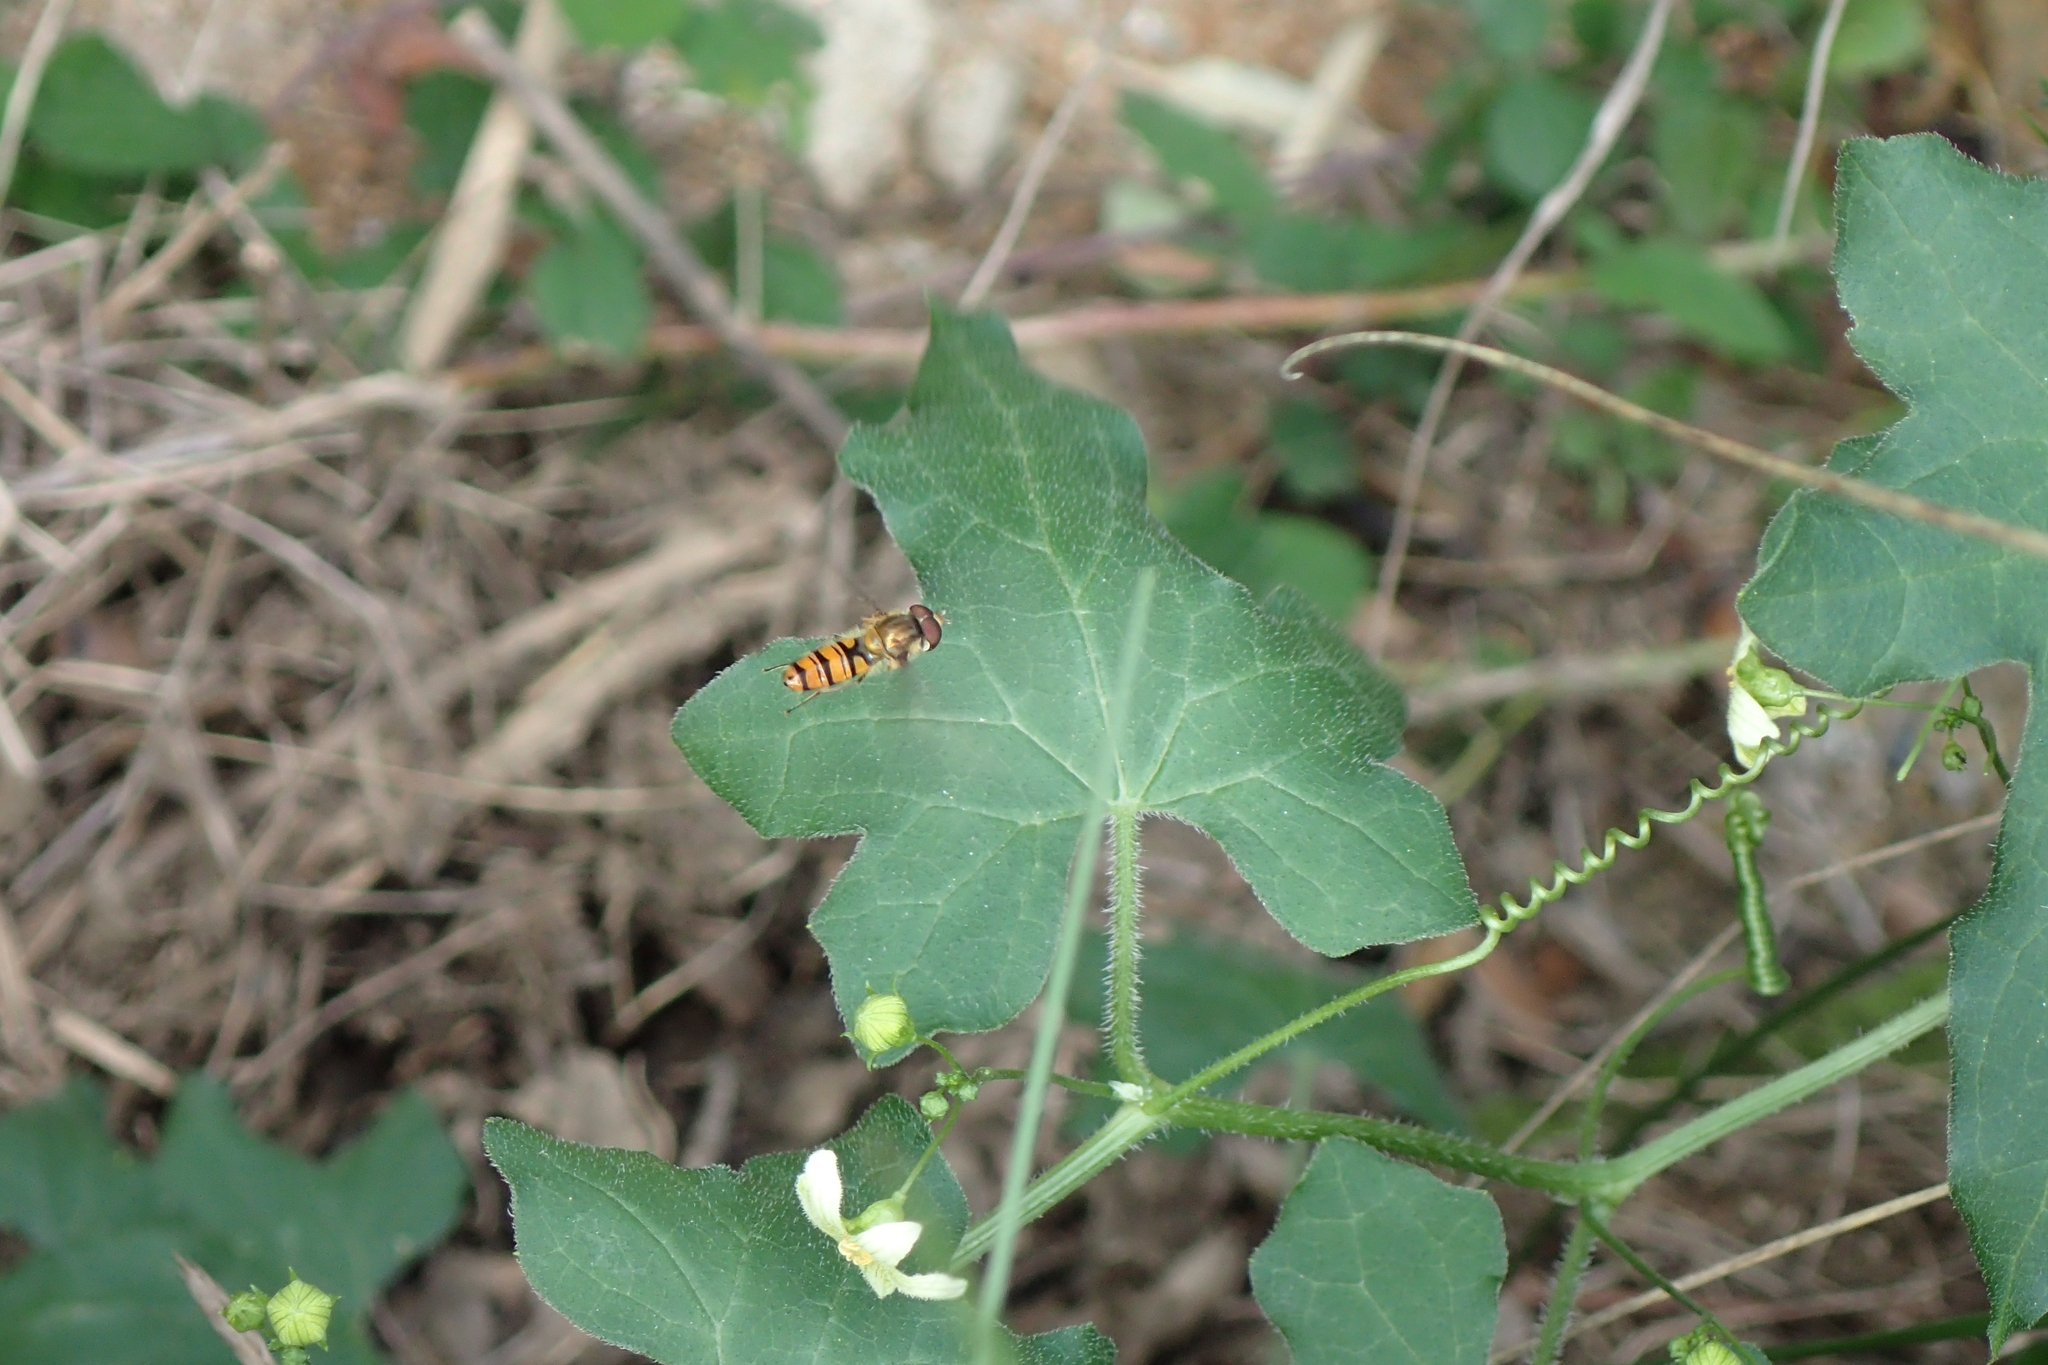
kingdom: Animalia
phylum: Arthropoda
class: Insecta
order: Diptera
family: Syrphidae
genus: Episyrphus
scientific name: Episyrphus balteatus
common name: Marmalade hoverfly
